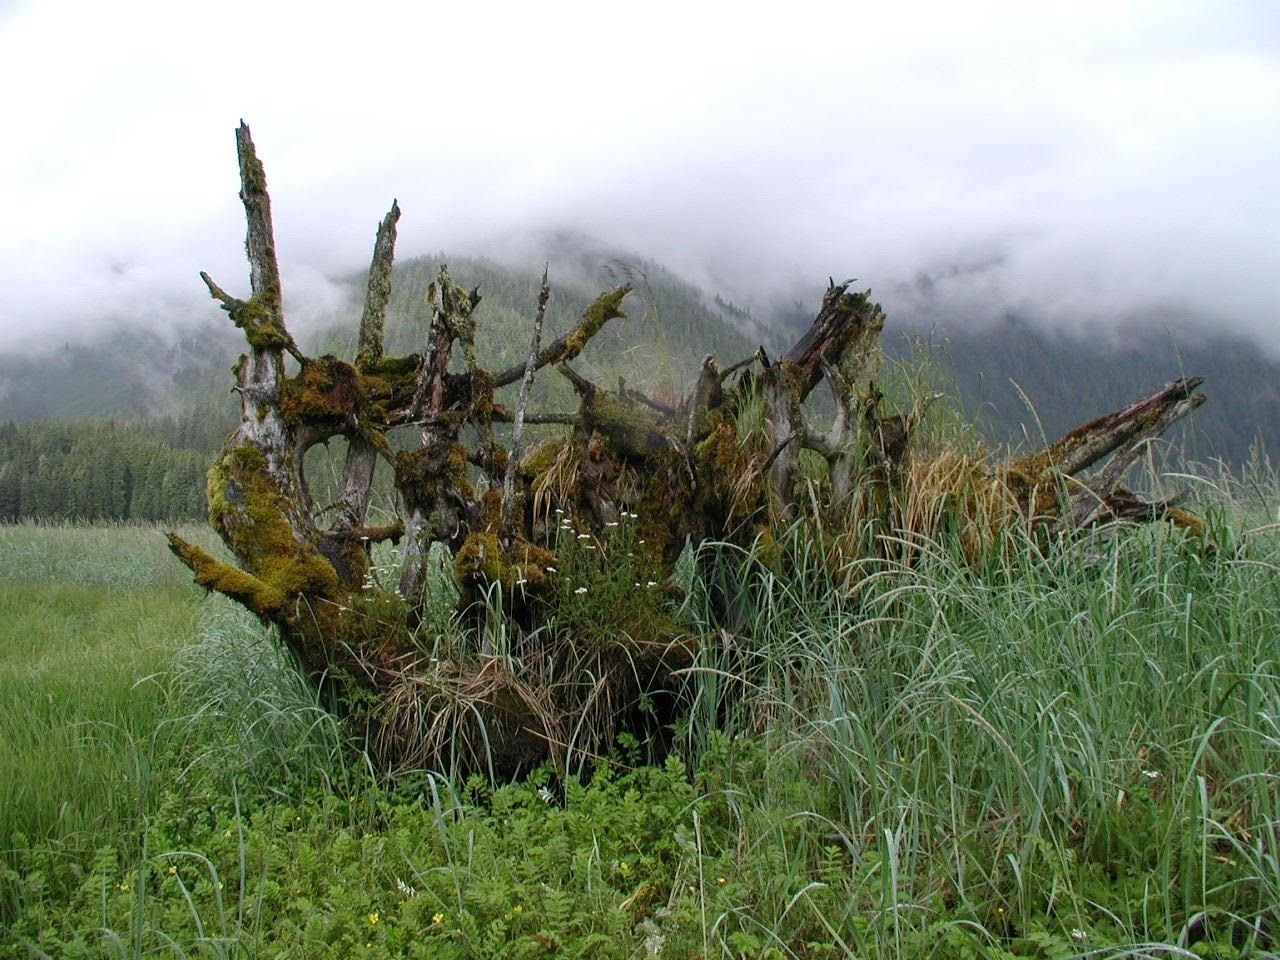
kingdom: Plantae
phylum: Tracheophyta
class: Liliopsida
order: Poales
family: Poaceae
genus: Leymus
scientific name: Leymus mollis
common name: American dune grass
